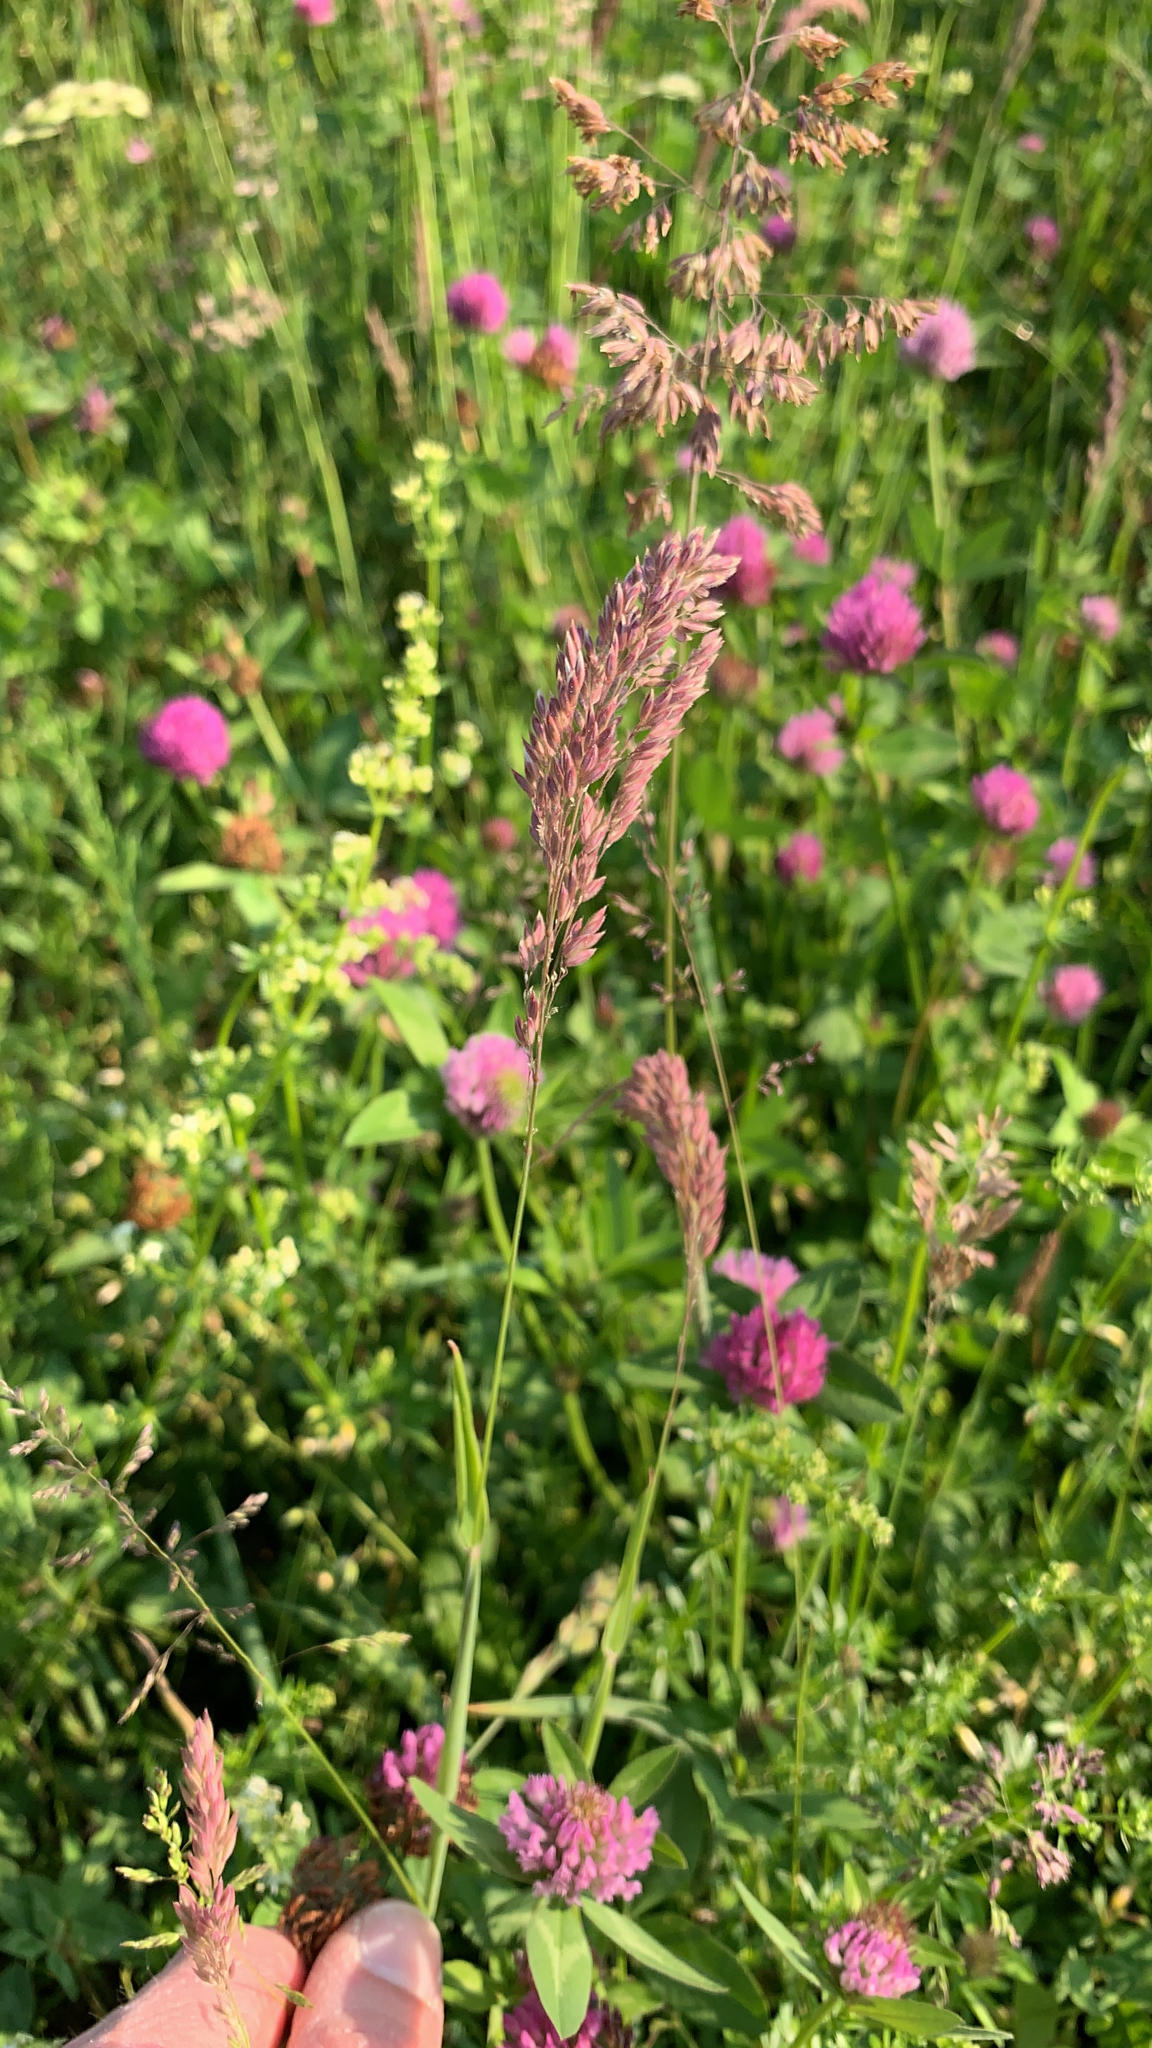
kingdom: Plantae
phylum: Tracheophyta
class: Liliopsida
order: Poales
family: Poaceae
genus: Holcus
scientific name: Holcus lanatus
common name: Yorkshire-fog
